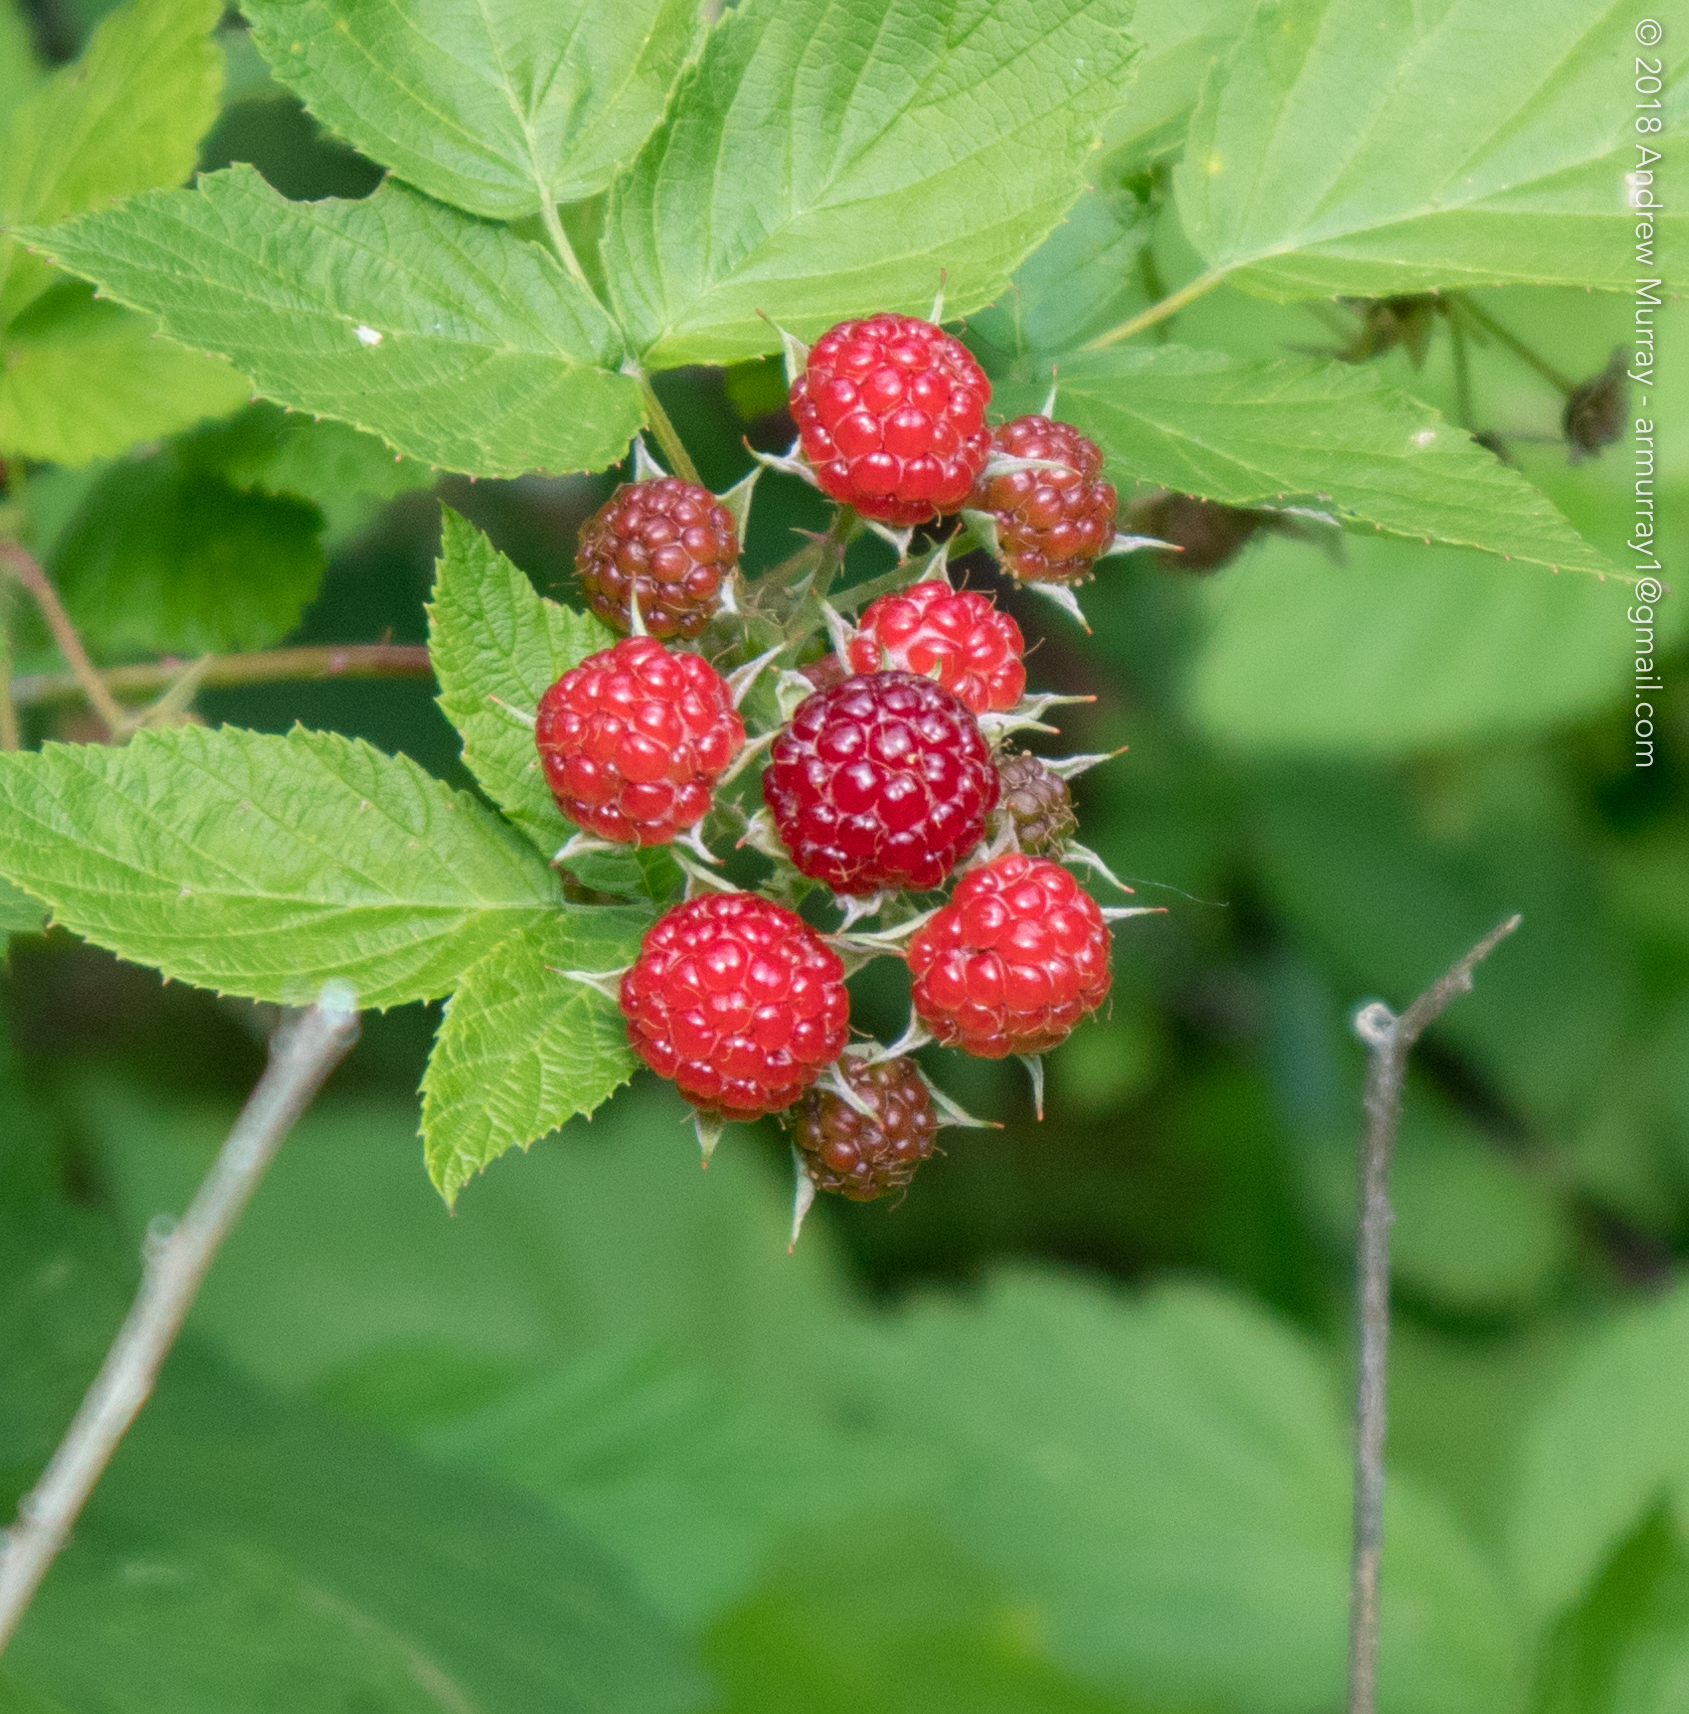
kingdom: Plantae
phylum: Tracheophyta
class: Magnoliopsida
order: Rosales
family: Rosaceae
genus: Rubus
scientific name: Rubus occidentalis
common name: Black raspberry
